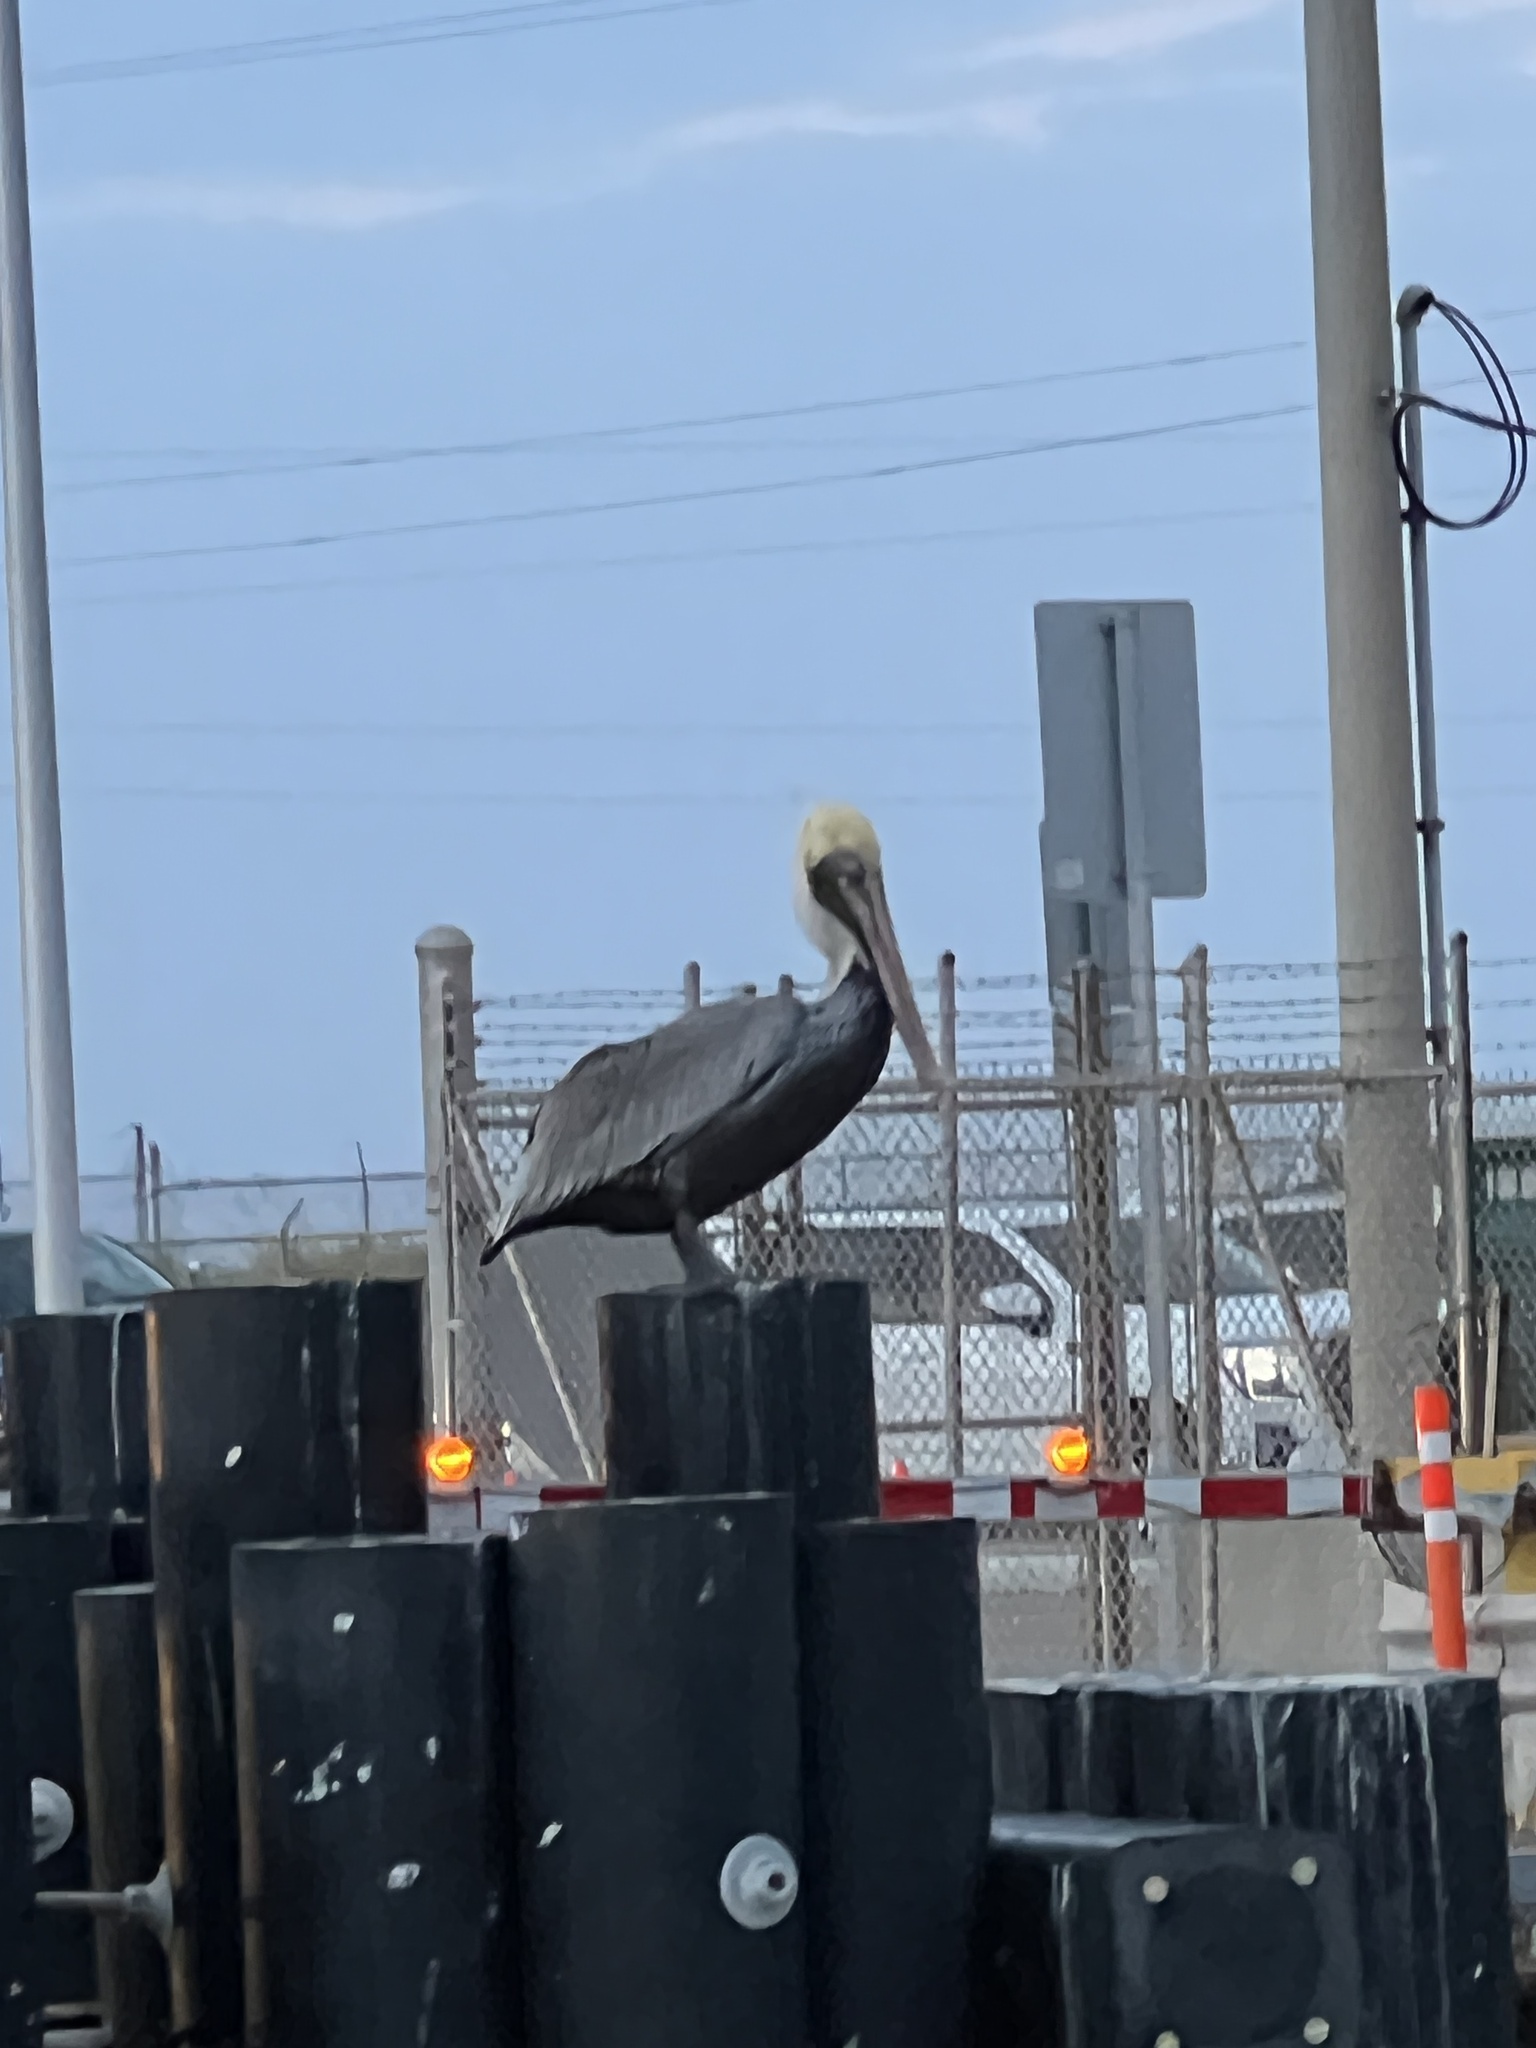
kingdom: Animalia
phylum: Chordata
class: Aves
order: Pelecaniformes
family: Pelecanidae
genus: Pelecanus
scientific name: Pelecanus occidentalis
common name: Brown pelican
